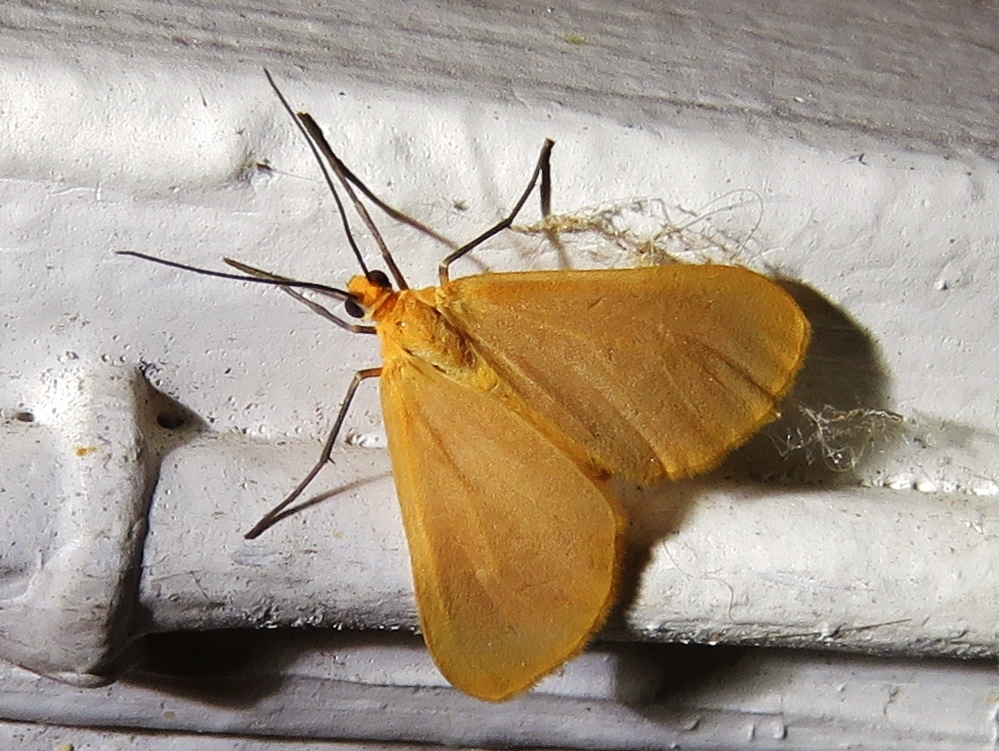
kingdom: Animalia
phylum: Arthropoda
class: Insecta
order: Lepidoptera
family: Geometridae
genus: Eubaphe
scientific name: Eubaphe unicolor
